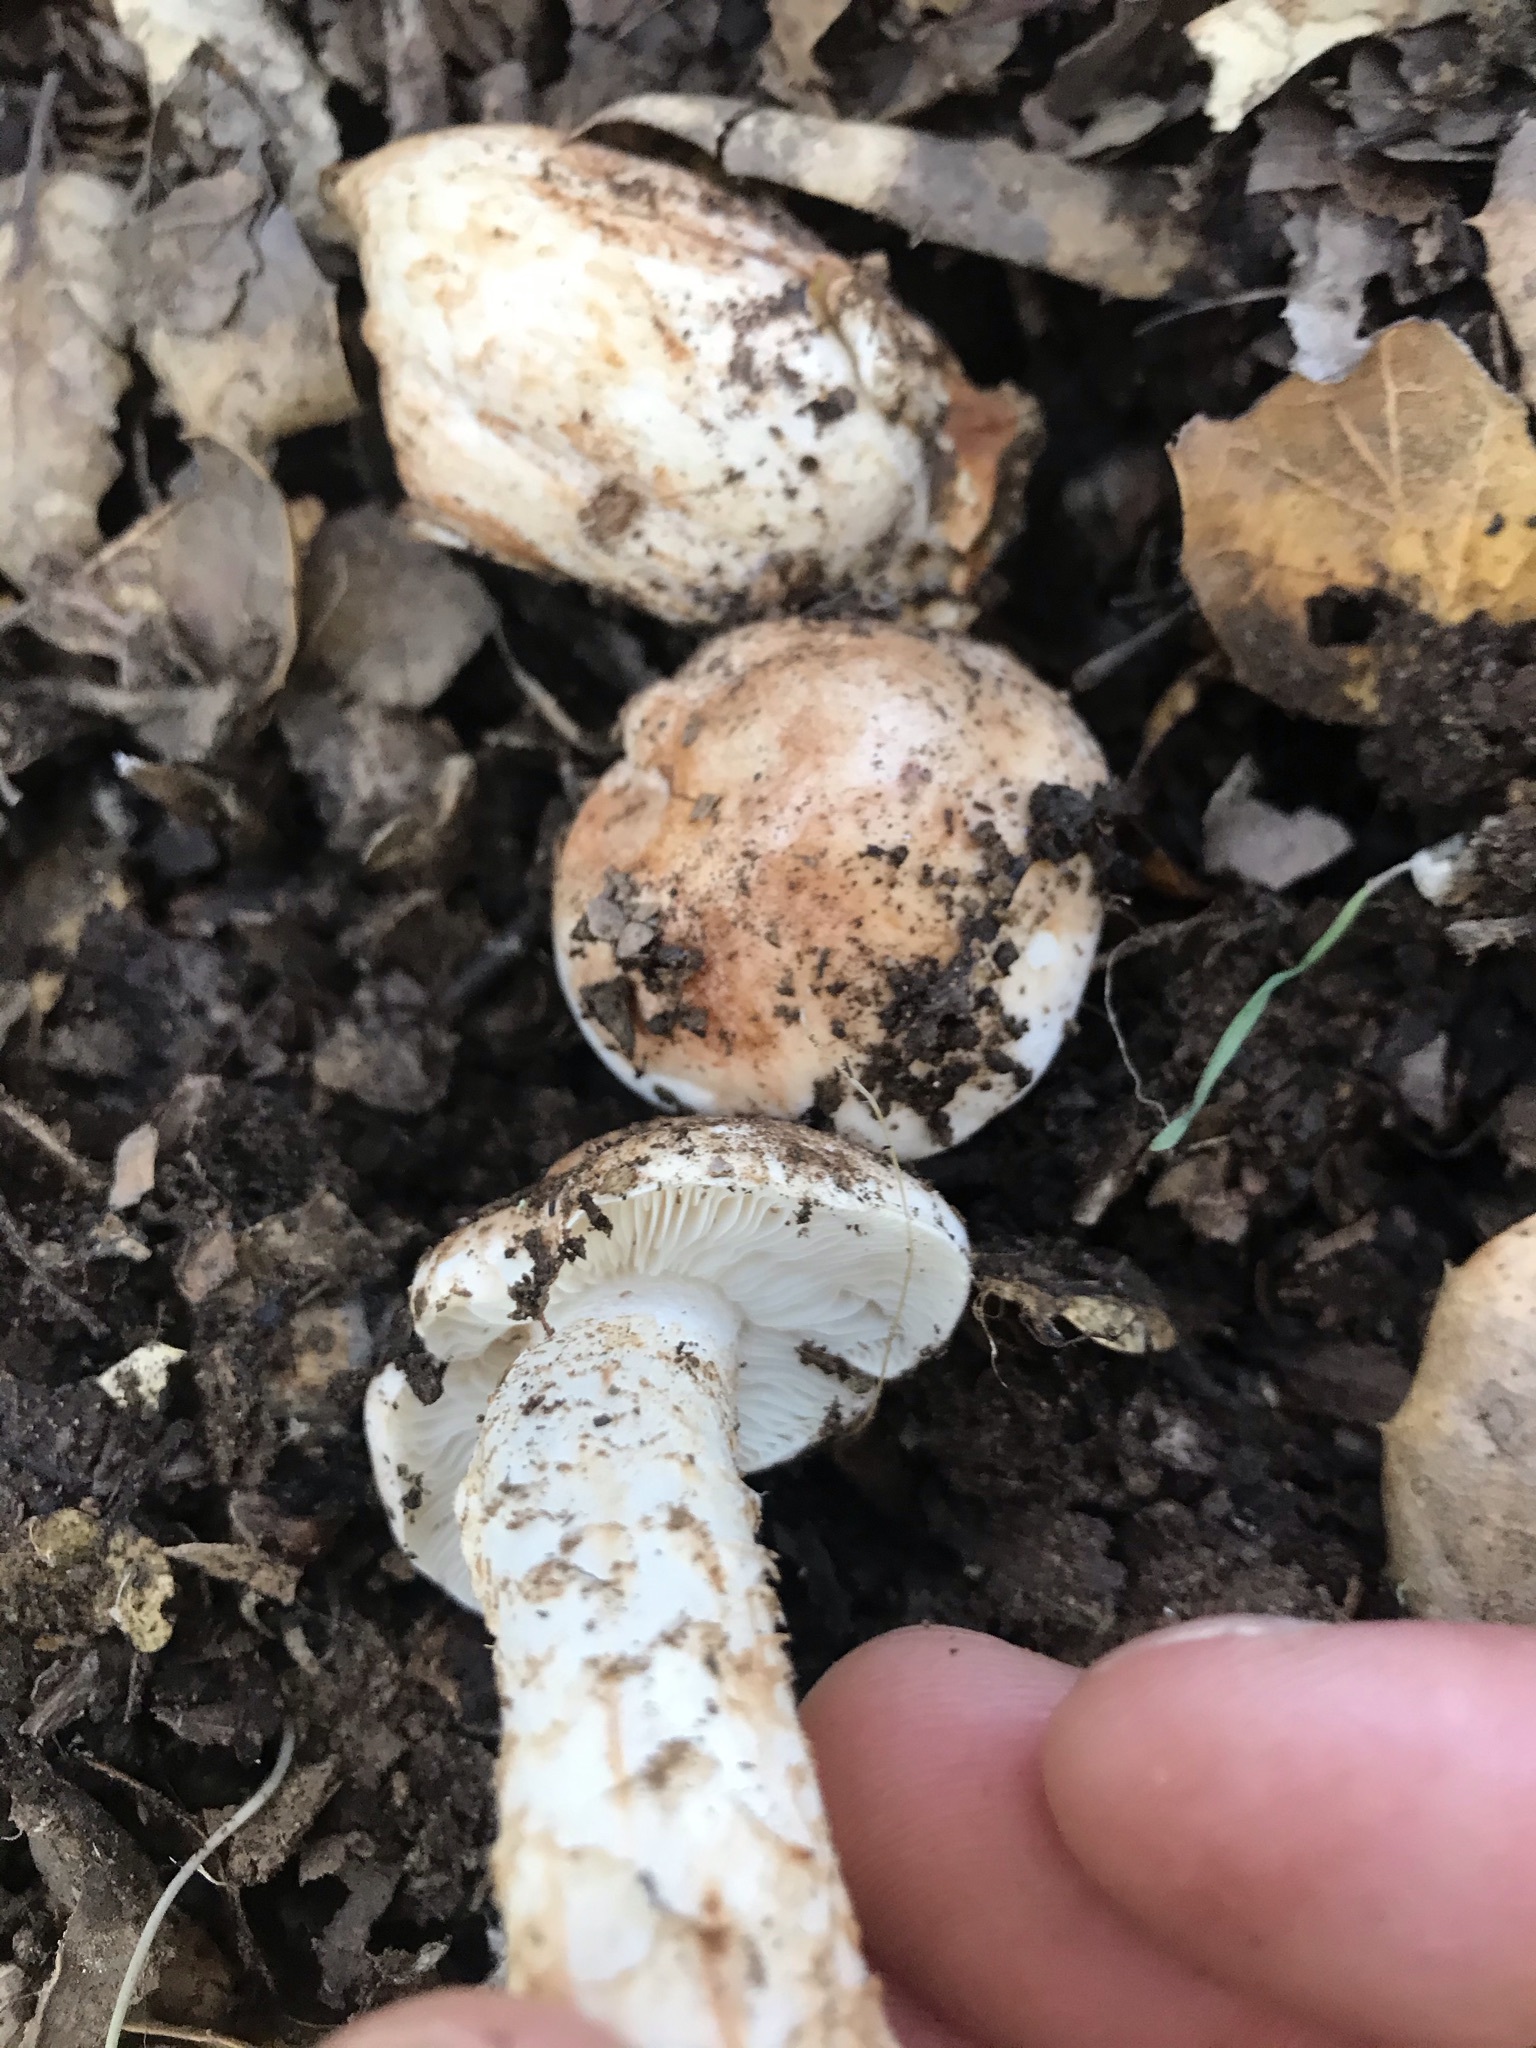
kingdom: Fungi
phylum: Basidiomycota
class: Agaricomycetes
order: Agaricales
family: Tricholomataceae
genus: Melanoleuca
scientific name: Melanoleuca dryophila
